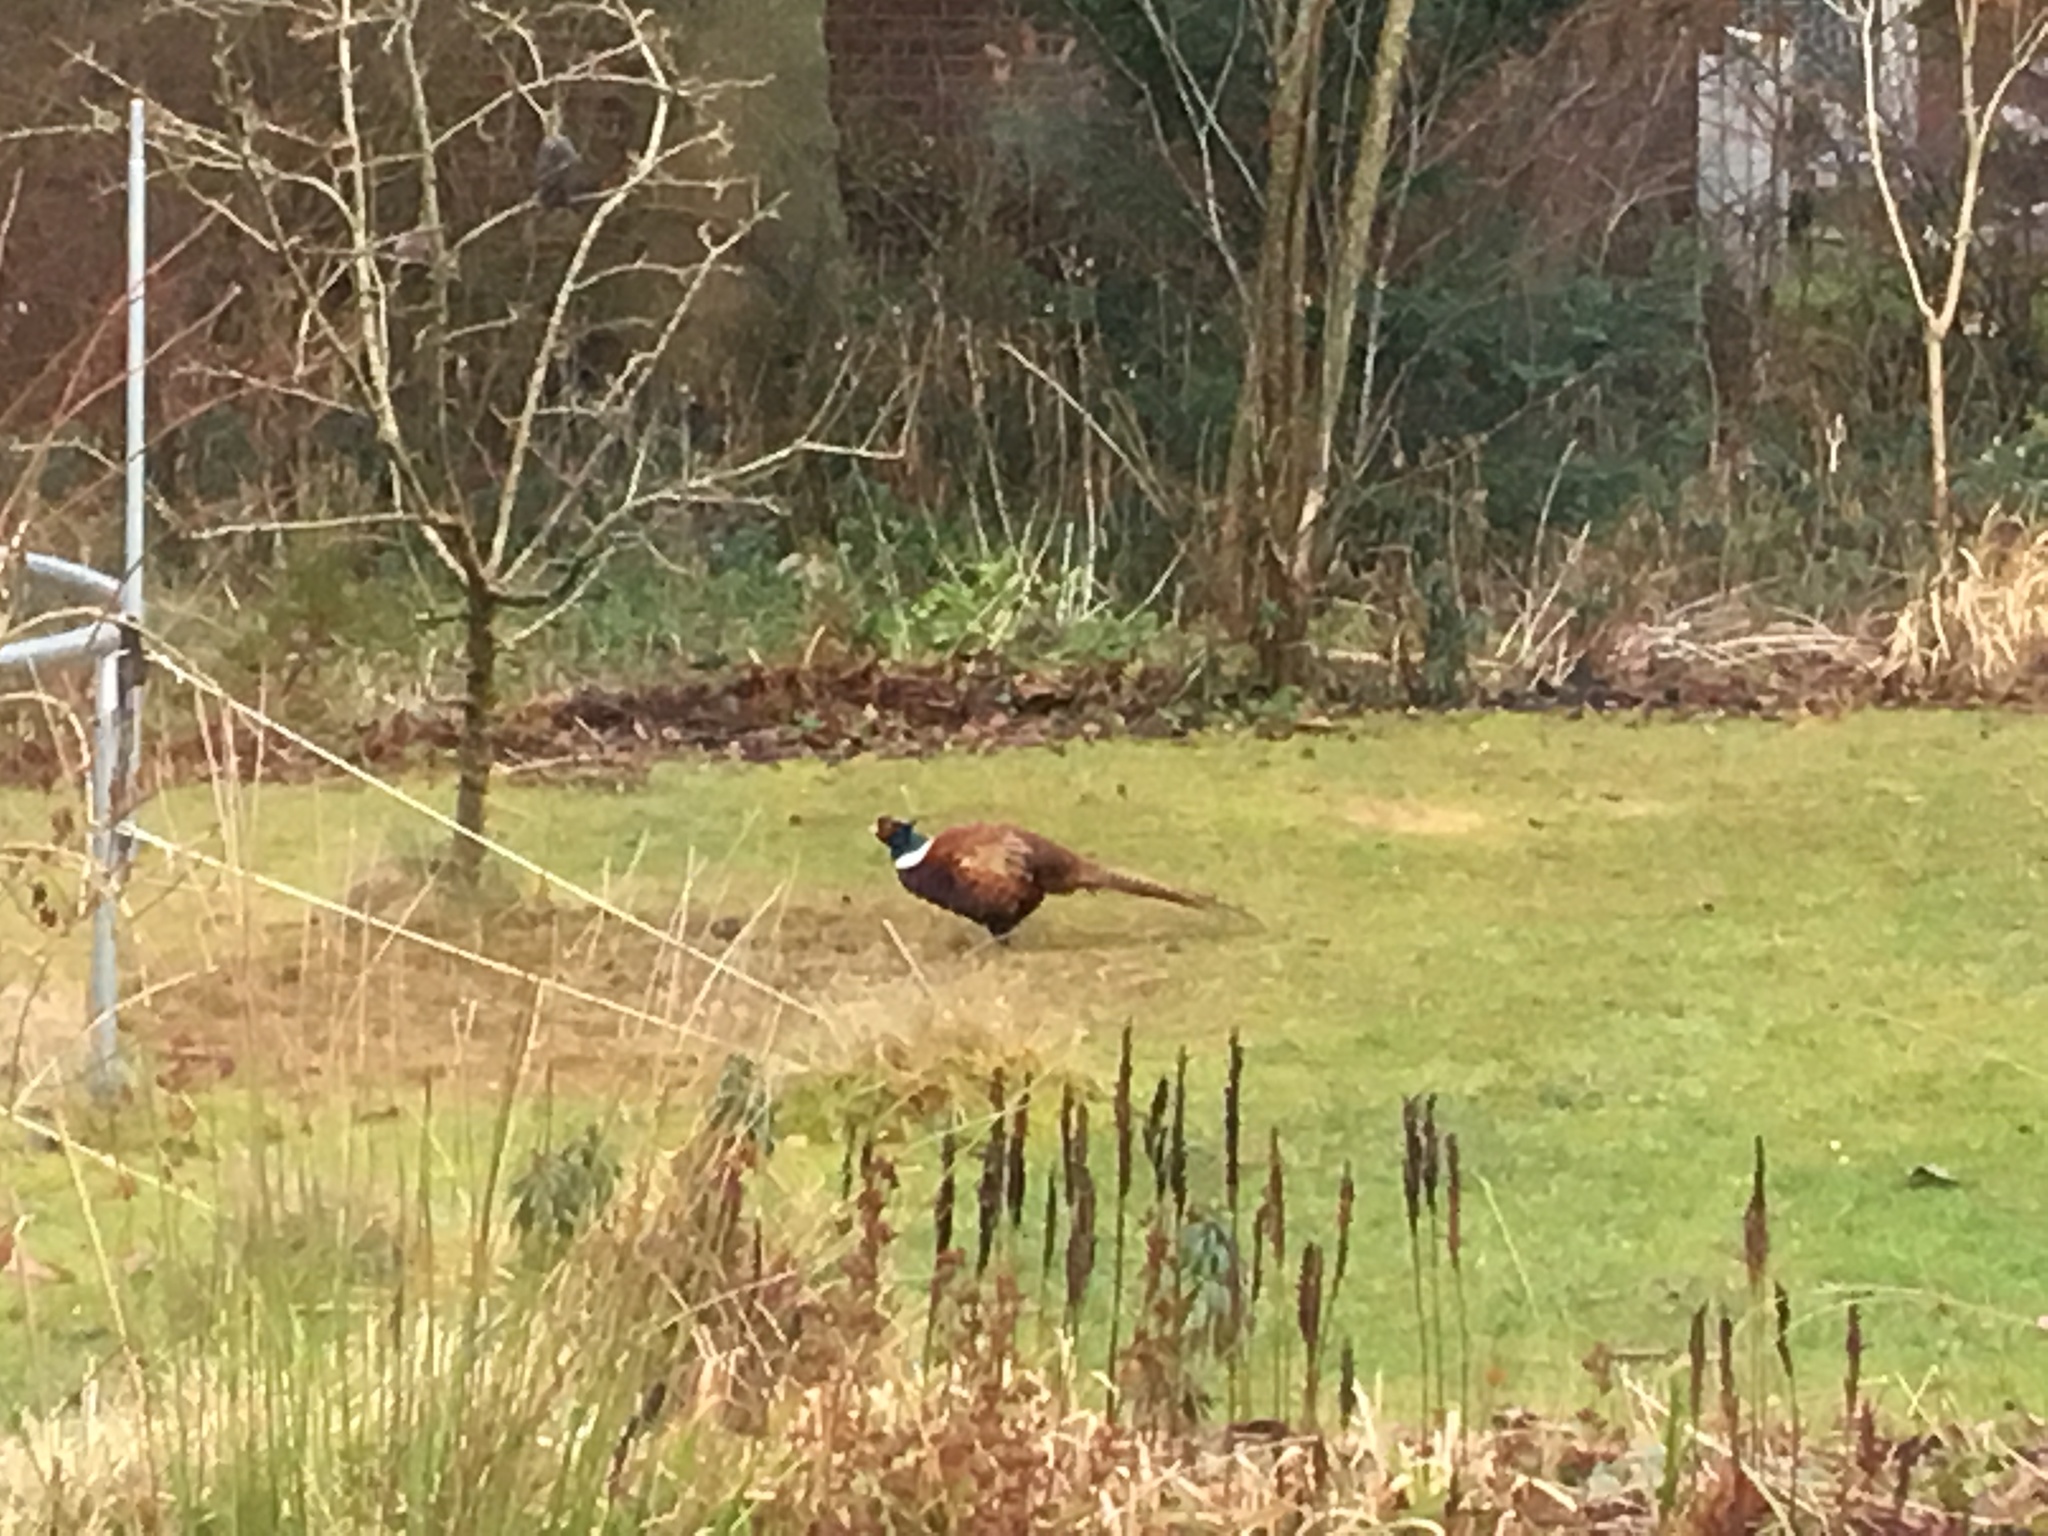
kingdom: Animalia
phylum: Chordata
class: Aves
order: Galliformes
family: Phasianidae
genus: Phasianus
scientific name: Phasianus colchicus
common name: Common pheasant
